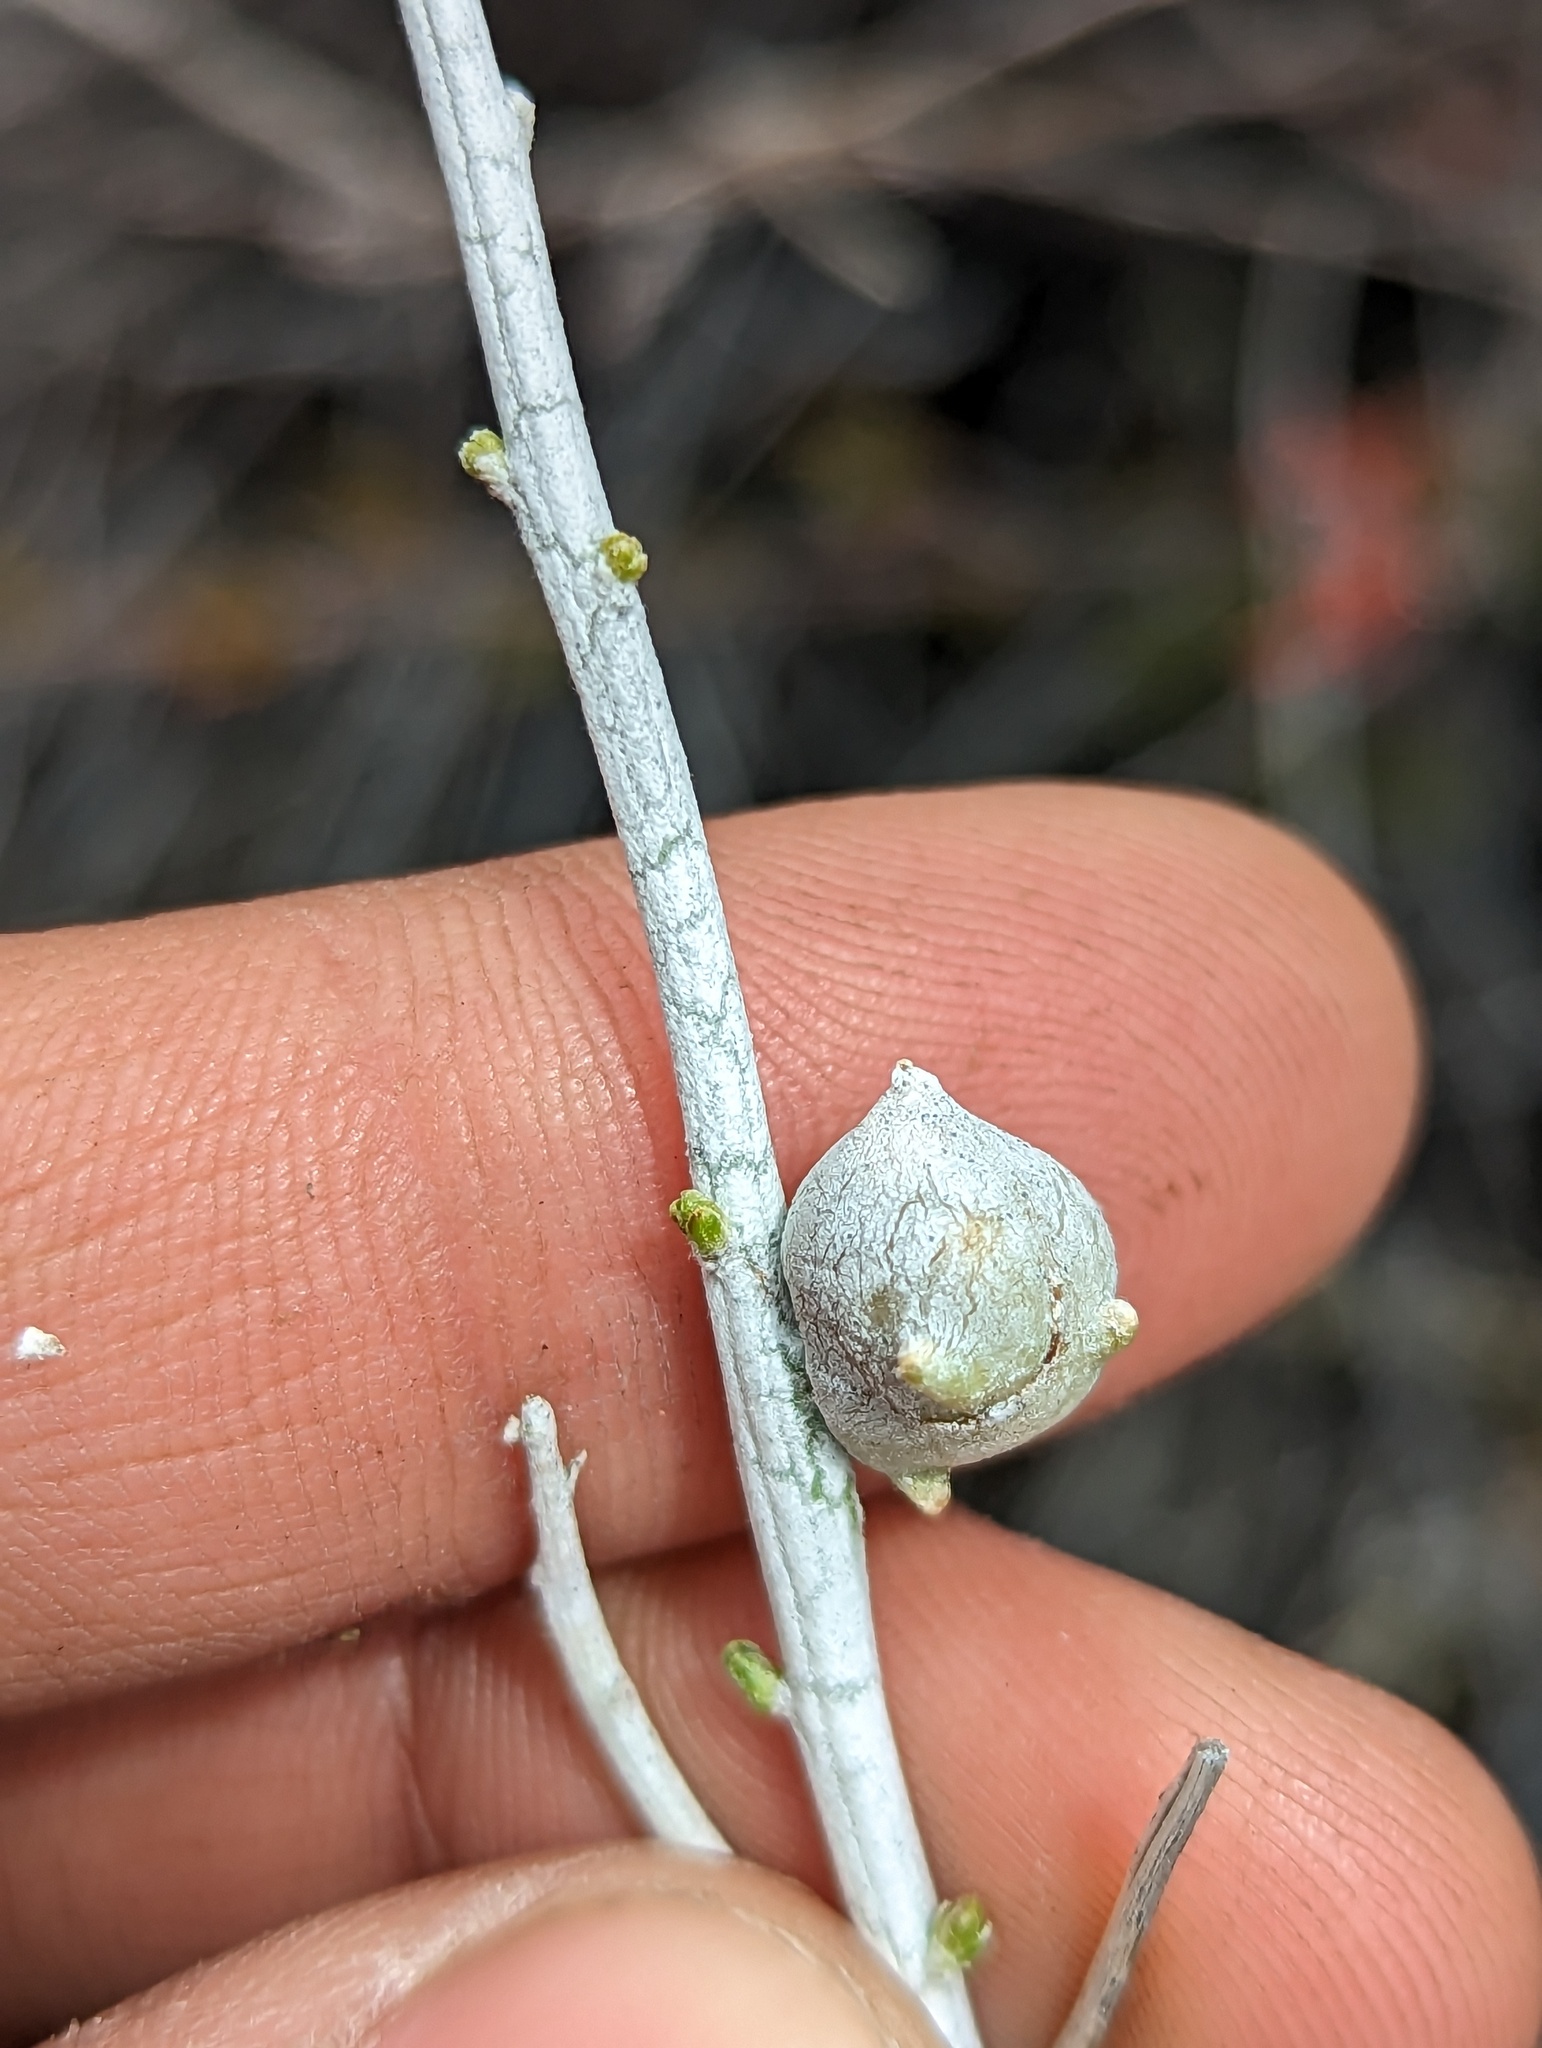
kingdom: Animalia
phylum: Arthropoda
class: Insecta
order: Diptera
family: Tephritidae
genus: Aciurina
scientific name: Aciurina trixa
